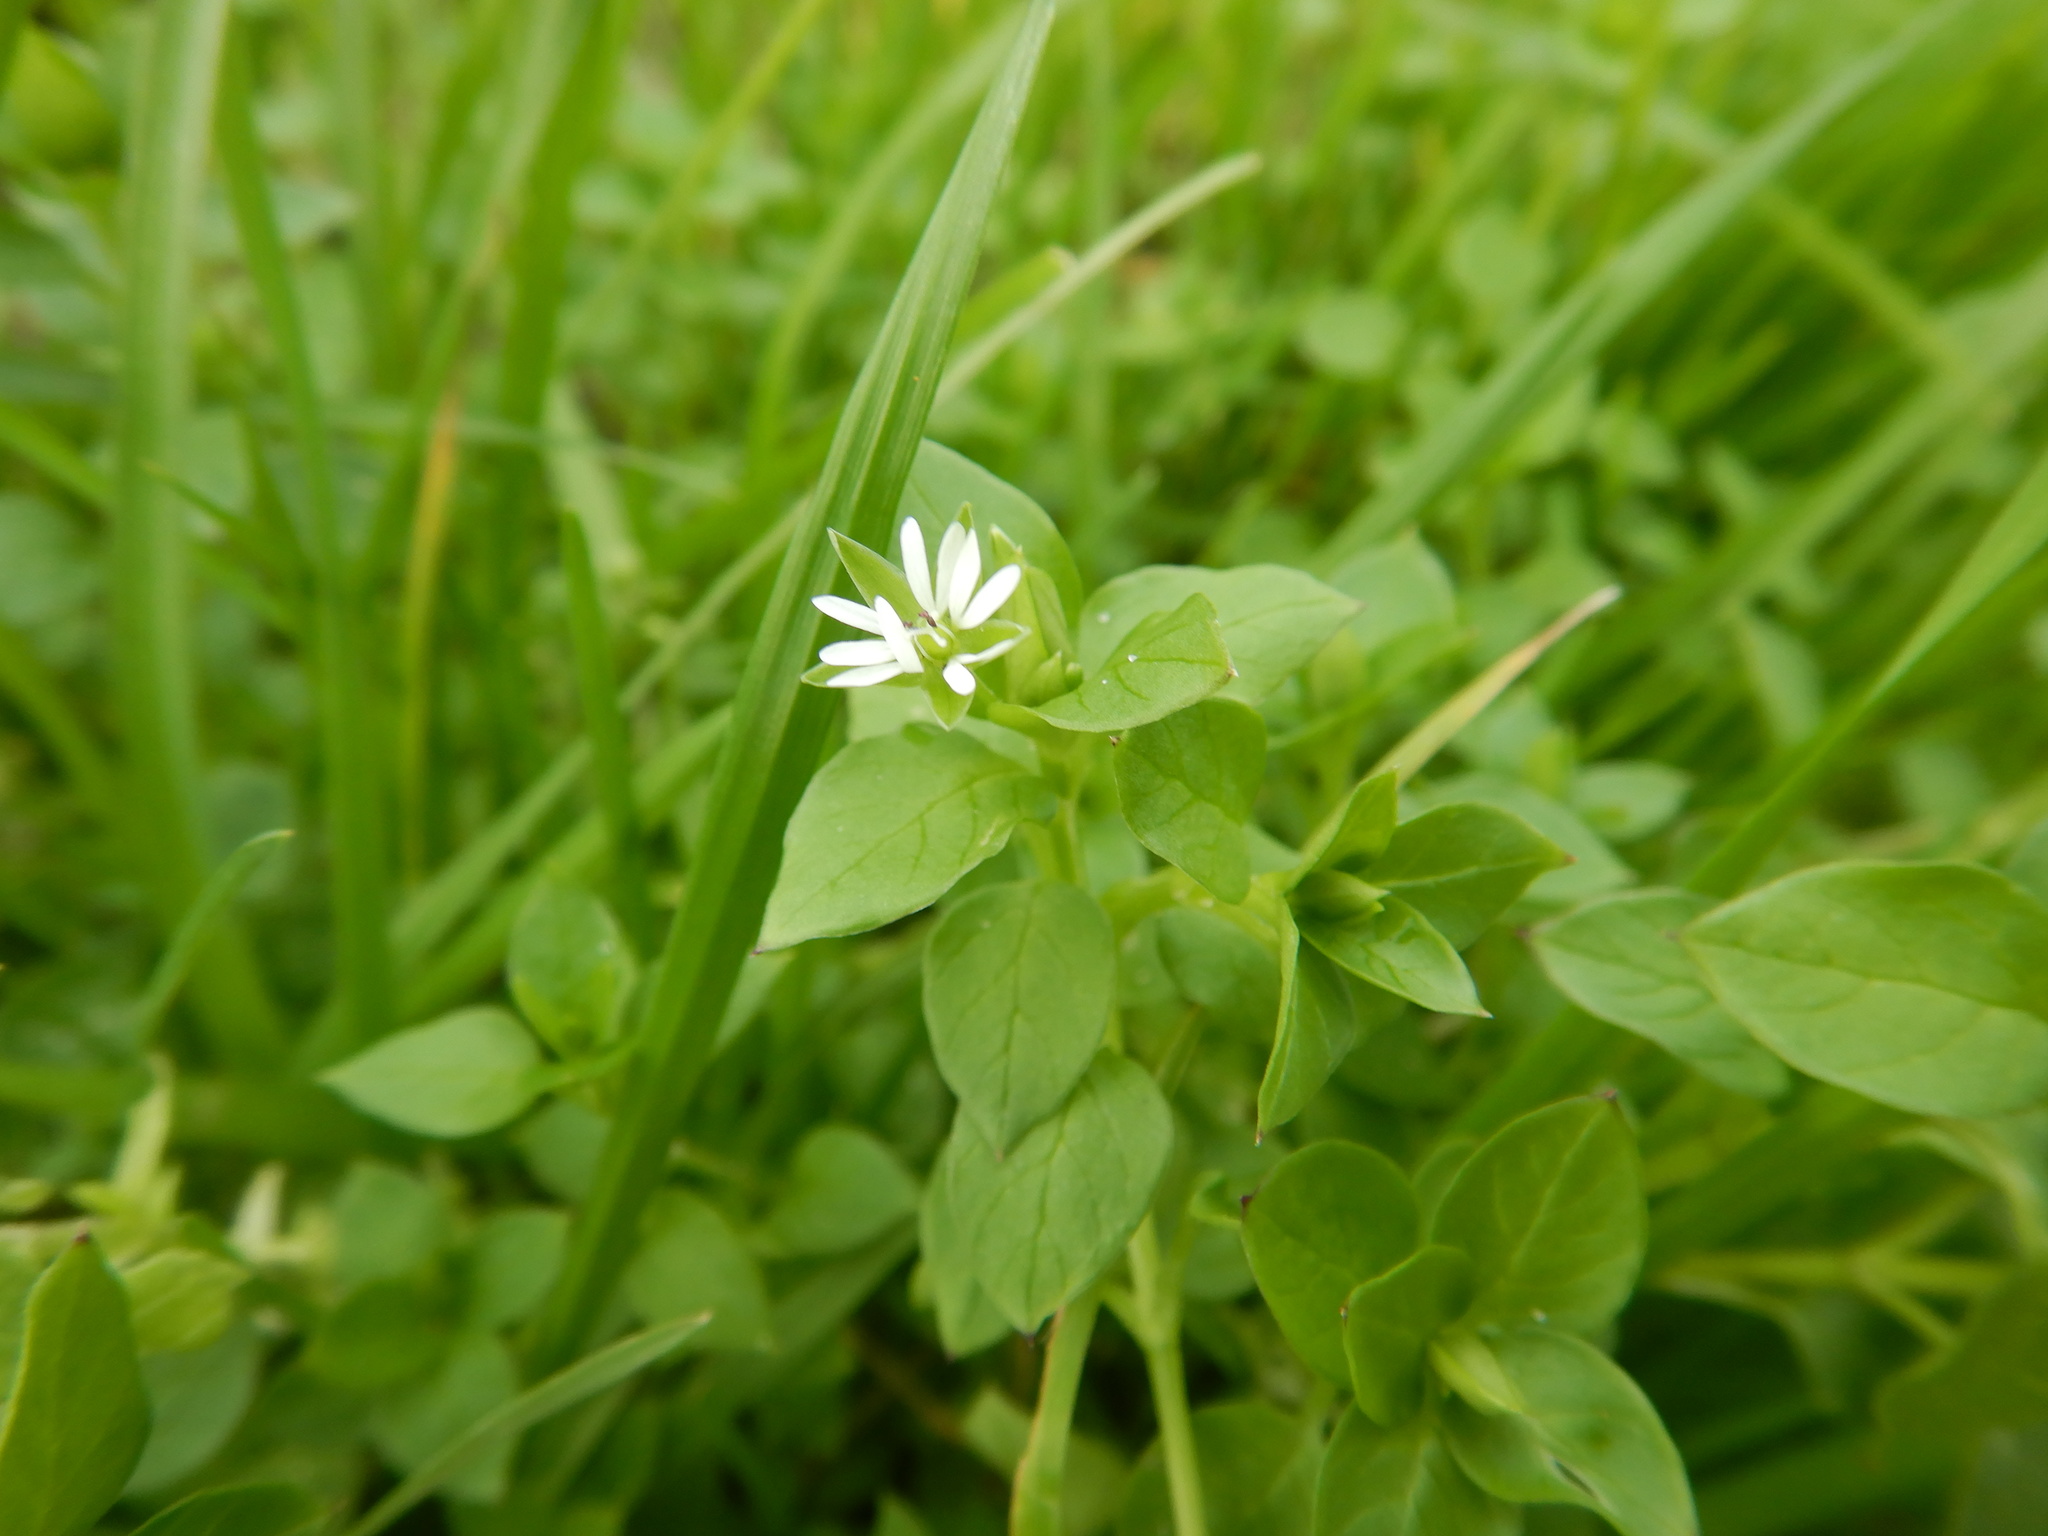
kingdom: Plantae
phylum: Tracheophyta
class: Magnoliopsida
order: Caryophyllales
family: Caryophyllaceae
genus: Stellaria
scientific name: Stellaria media
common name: Common chickweed
